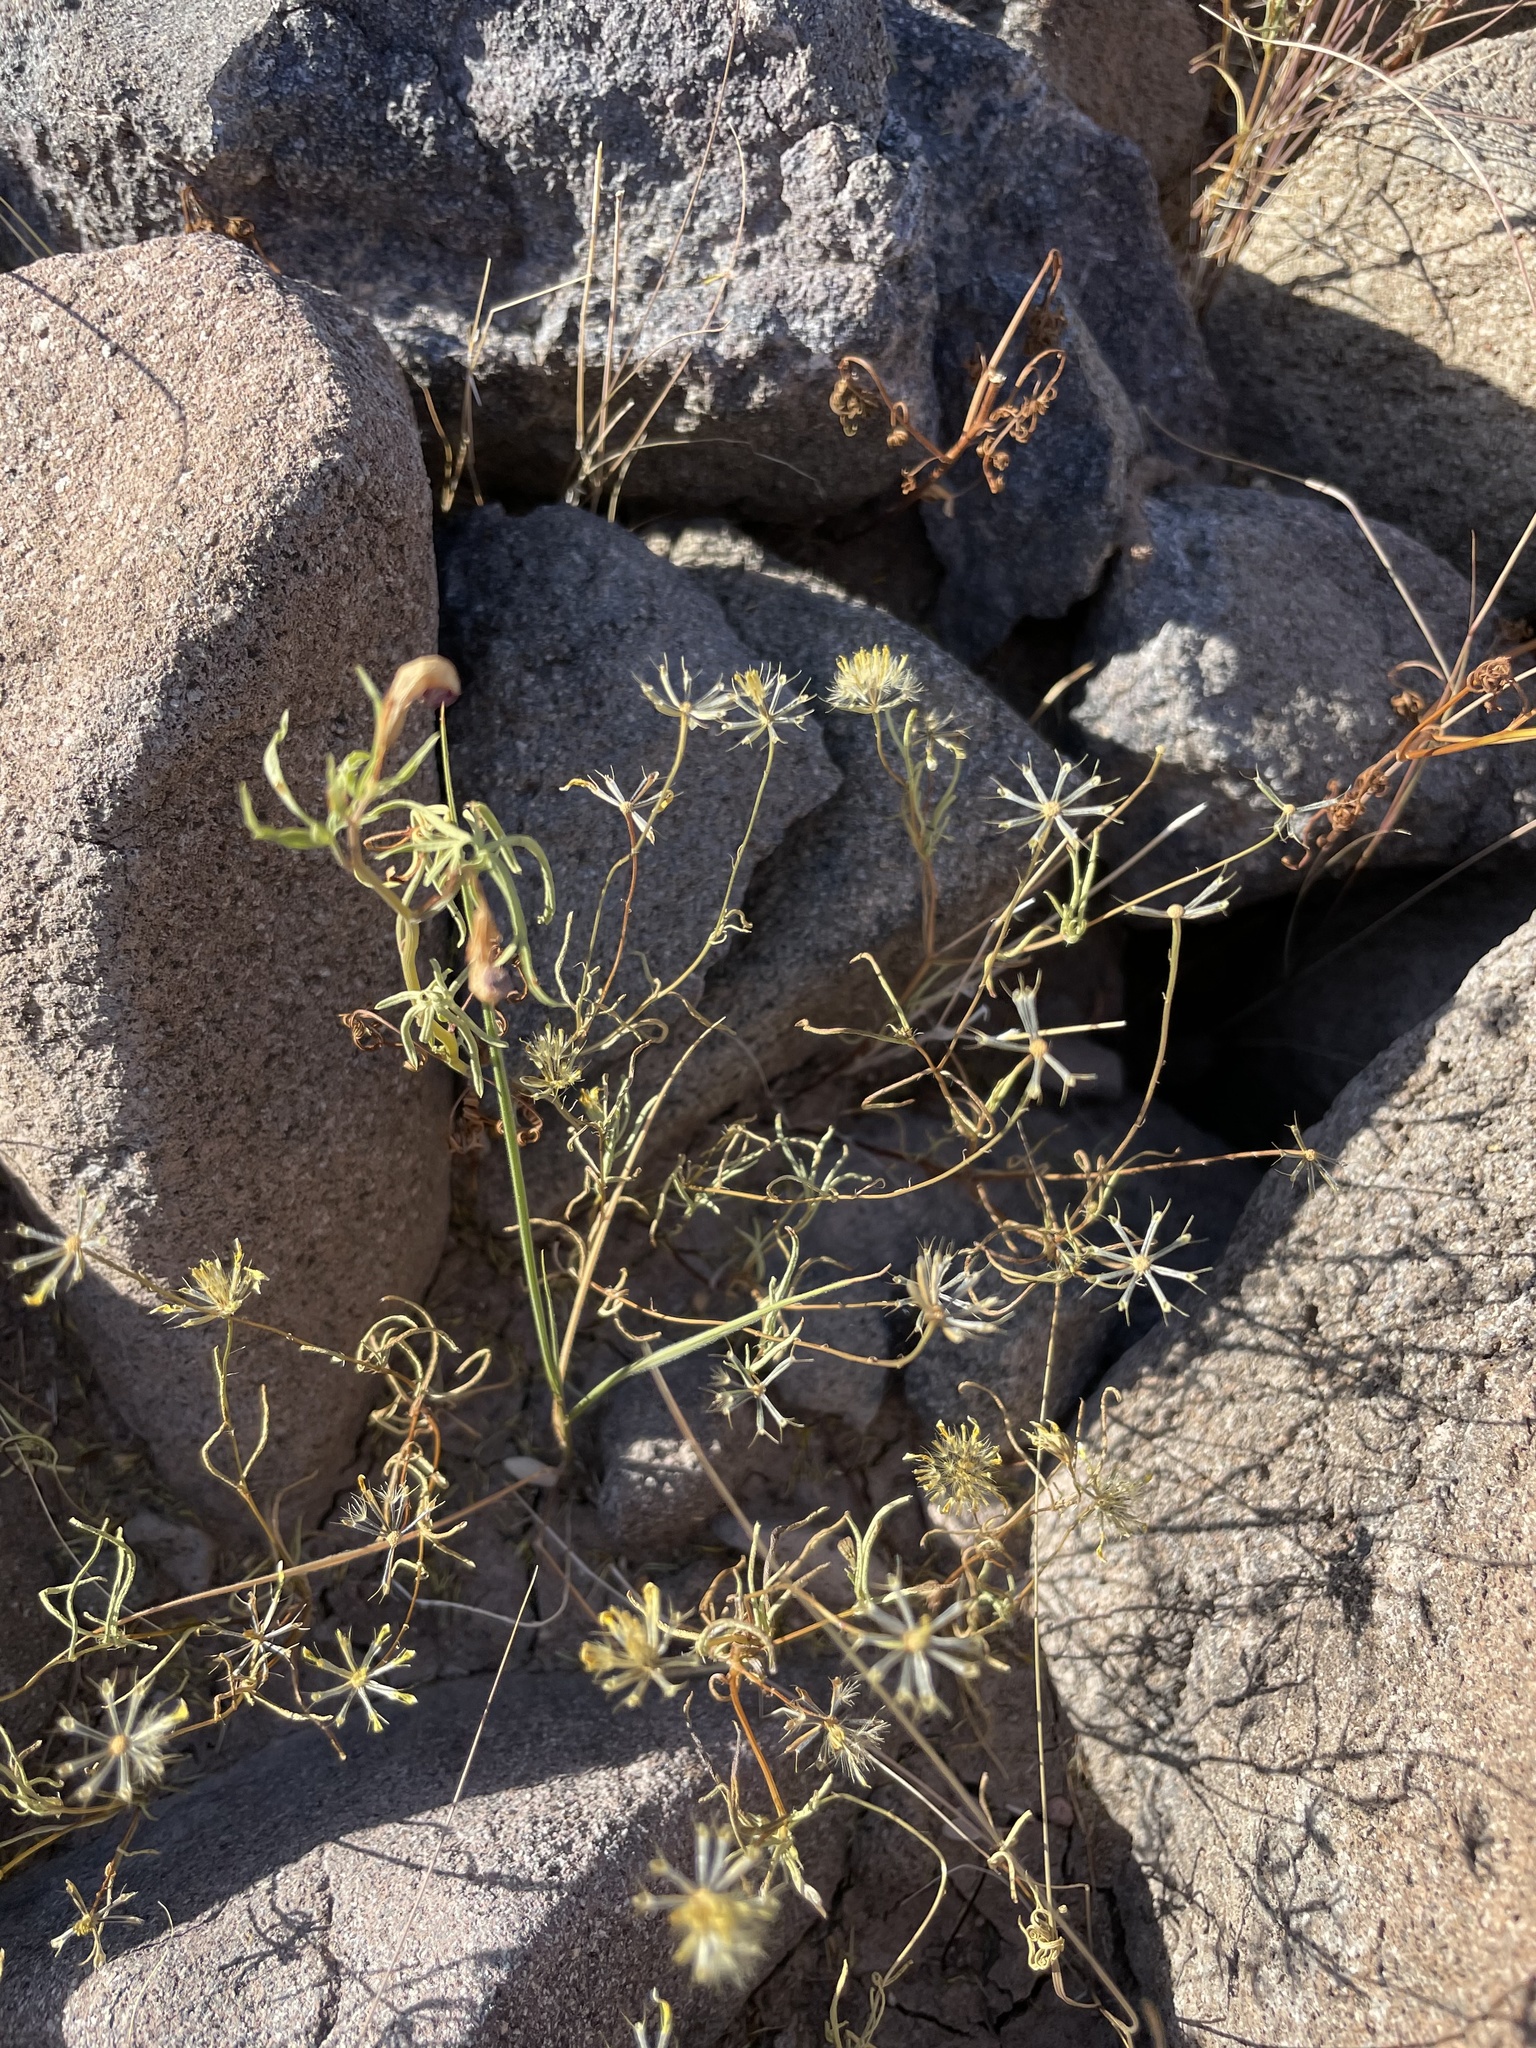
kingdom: Plantae
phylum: Tracheophyta
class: Magnoliopsida
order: Asterales
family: Asteraceae
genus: Pectis
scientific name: Pectis rusbyi
